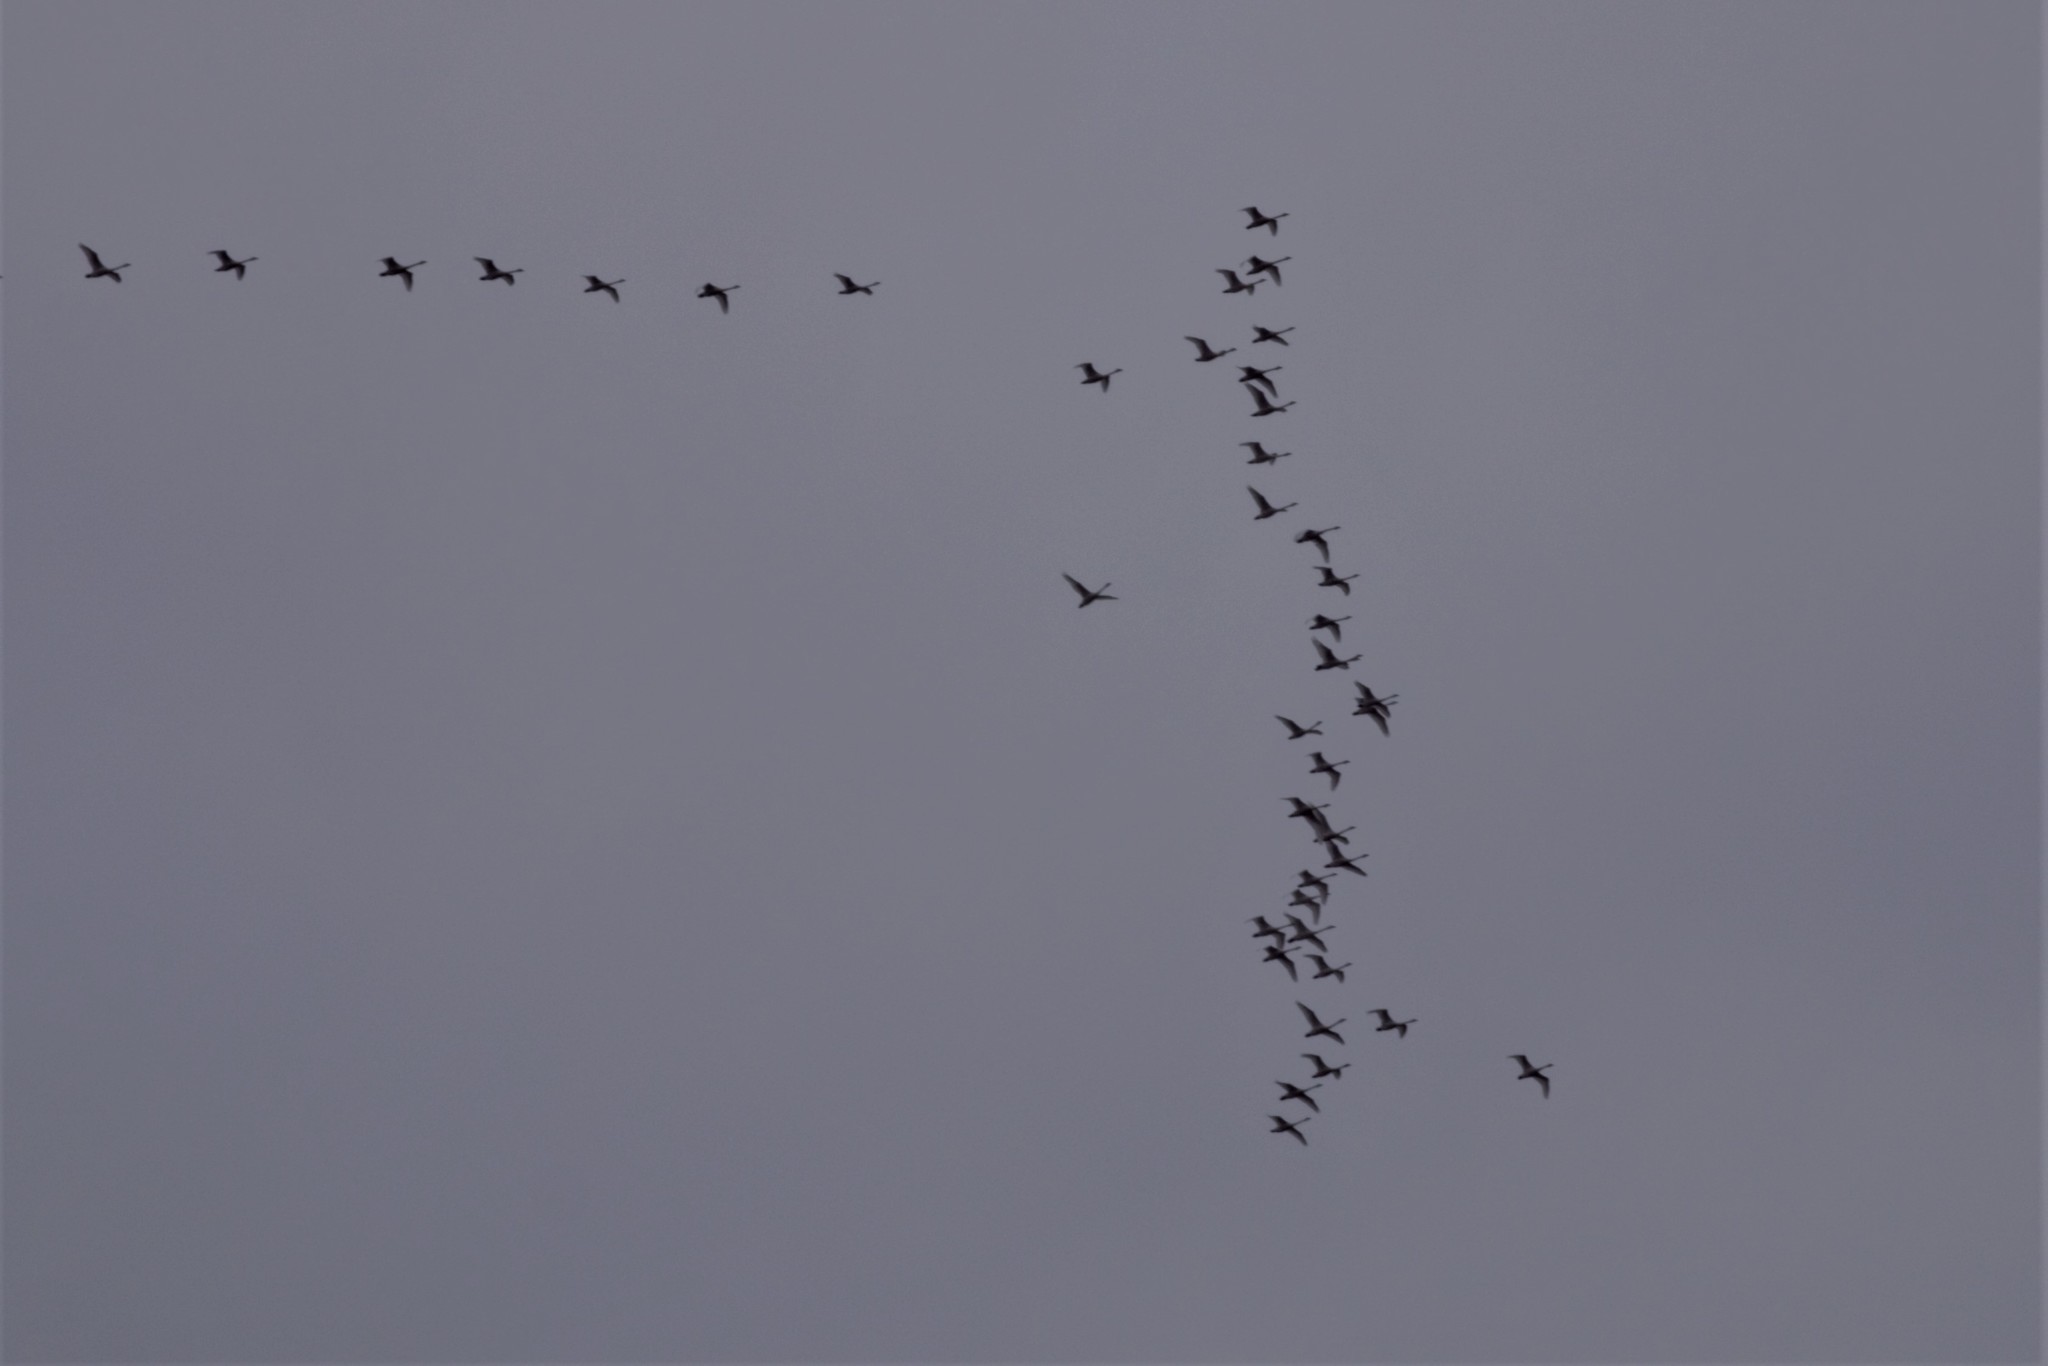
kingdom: Animalia
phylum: Chordata
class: Aves
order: Anseriformes
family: Anatidae
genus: Cygnus
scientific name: Cygnus columbianus
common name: Tundra swan
